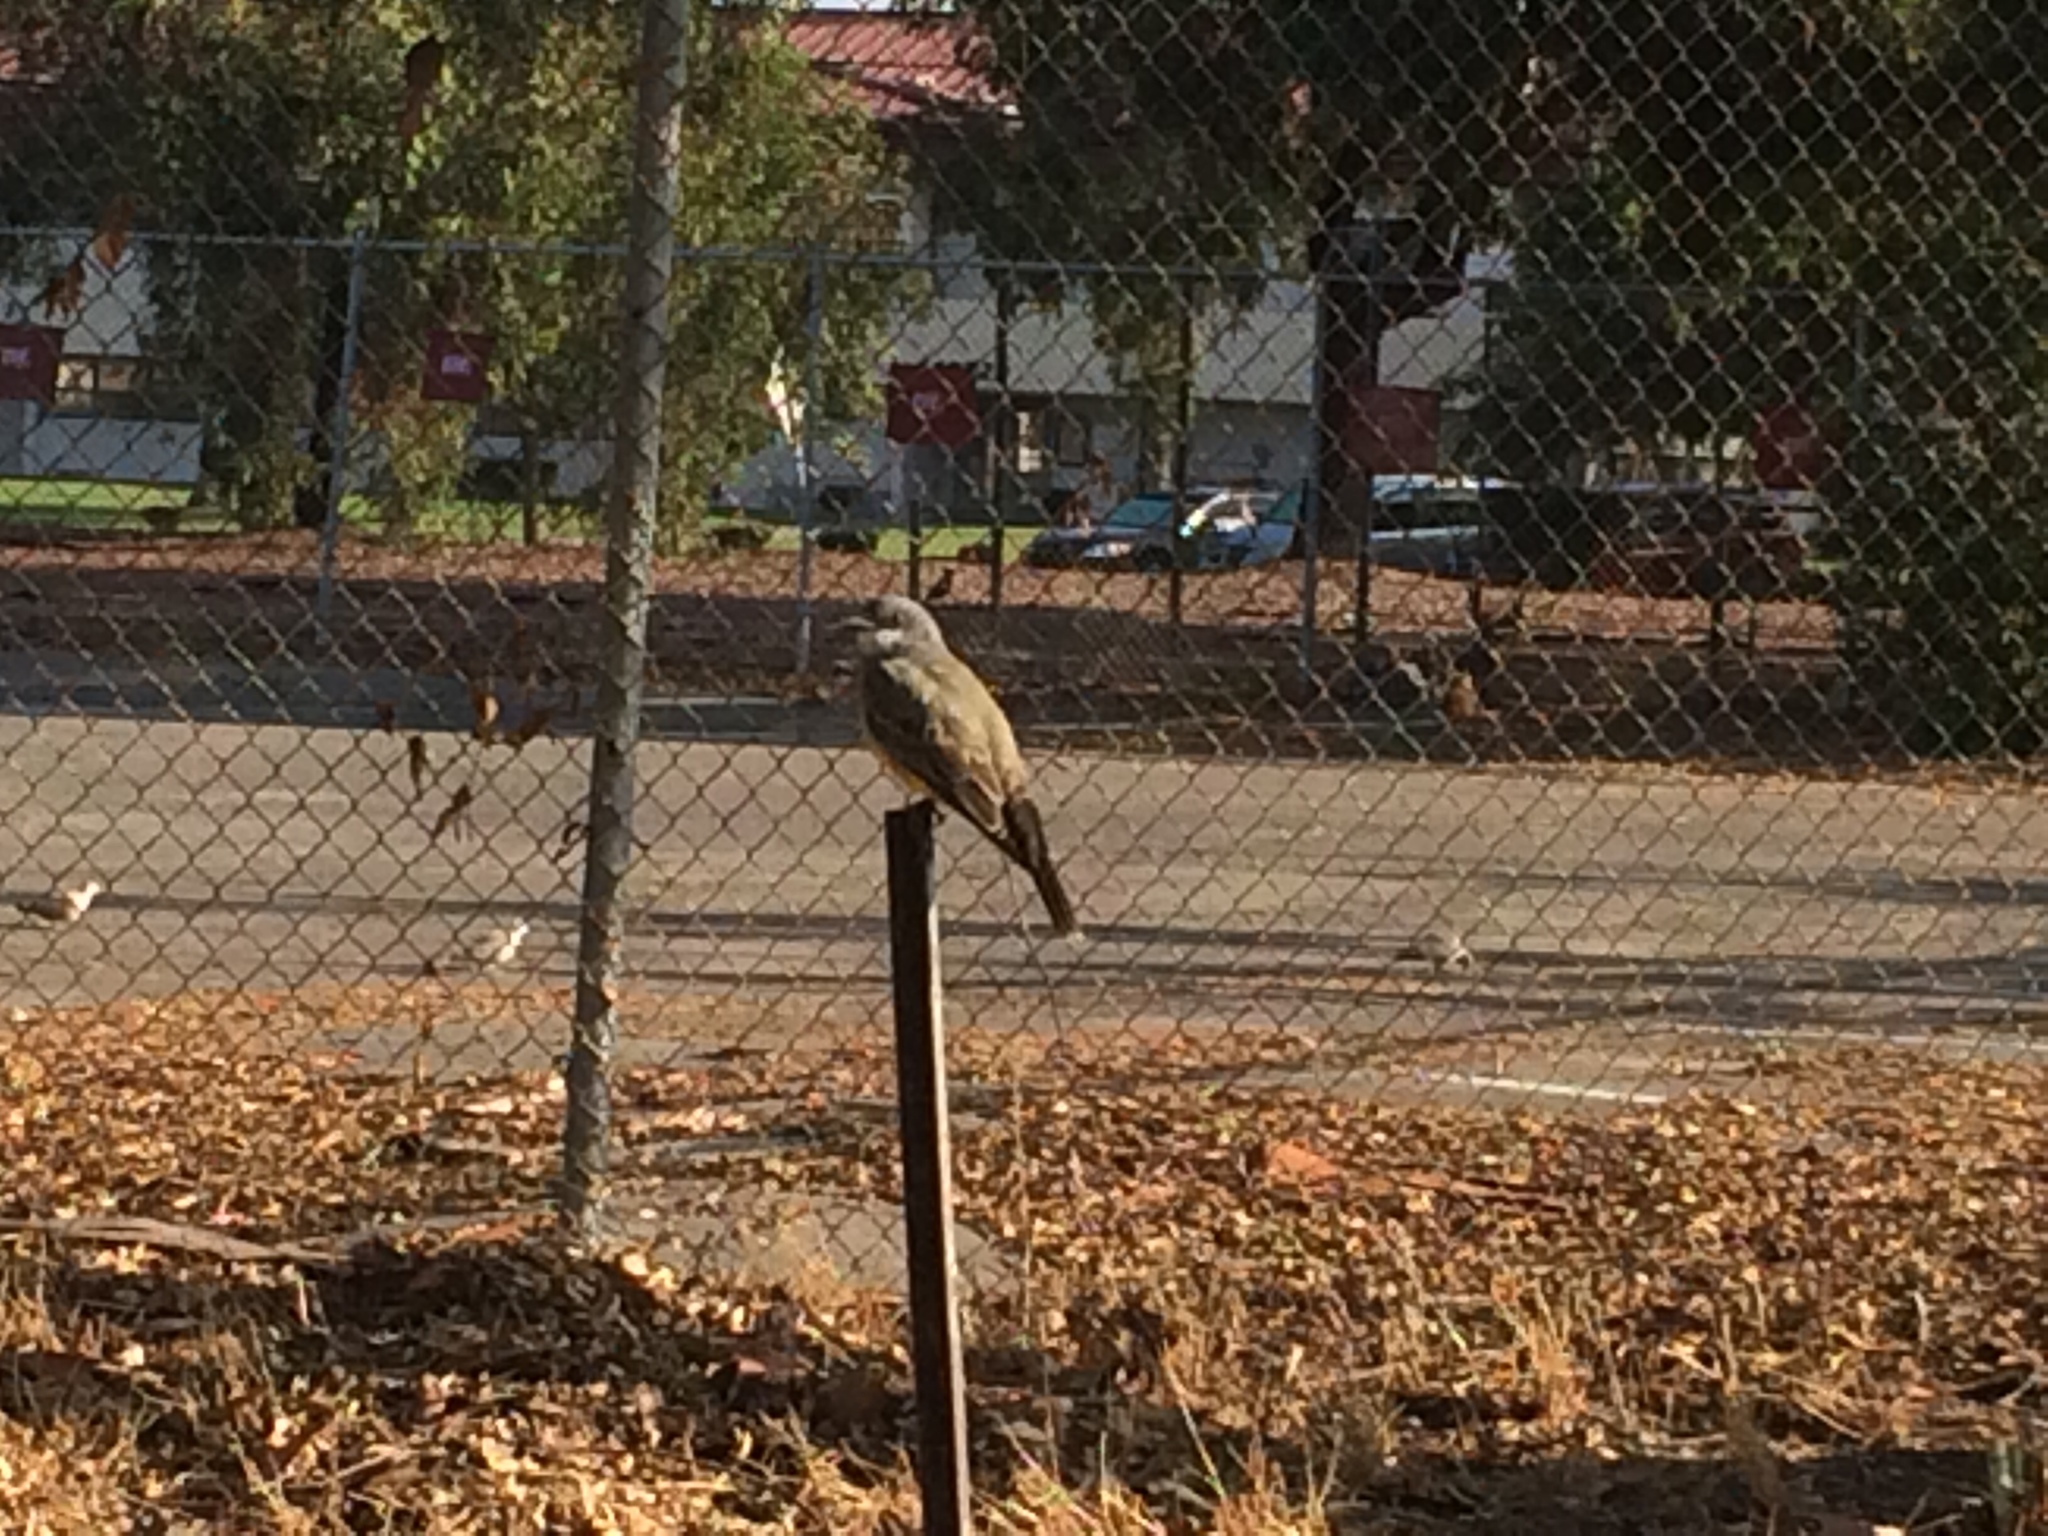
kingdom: Animalia
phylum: Chordata
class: Aves
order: Passeriformes
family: Tyrannidae
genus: Tyrannus
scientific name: Tyrannus verticalis
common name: Western kingbird
